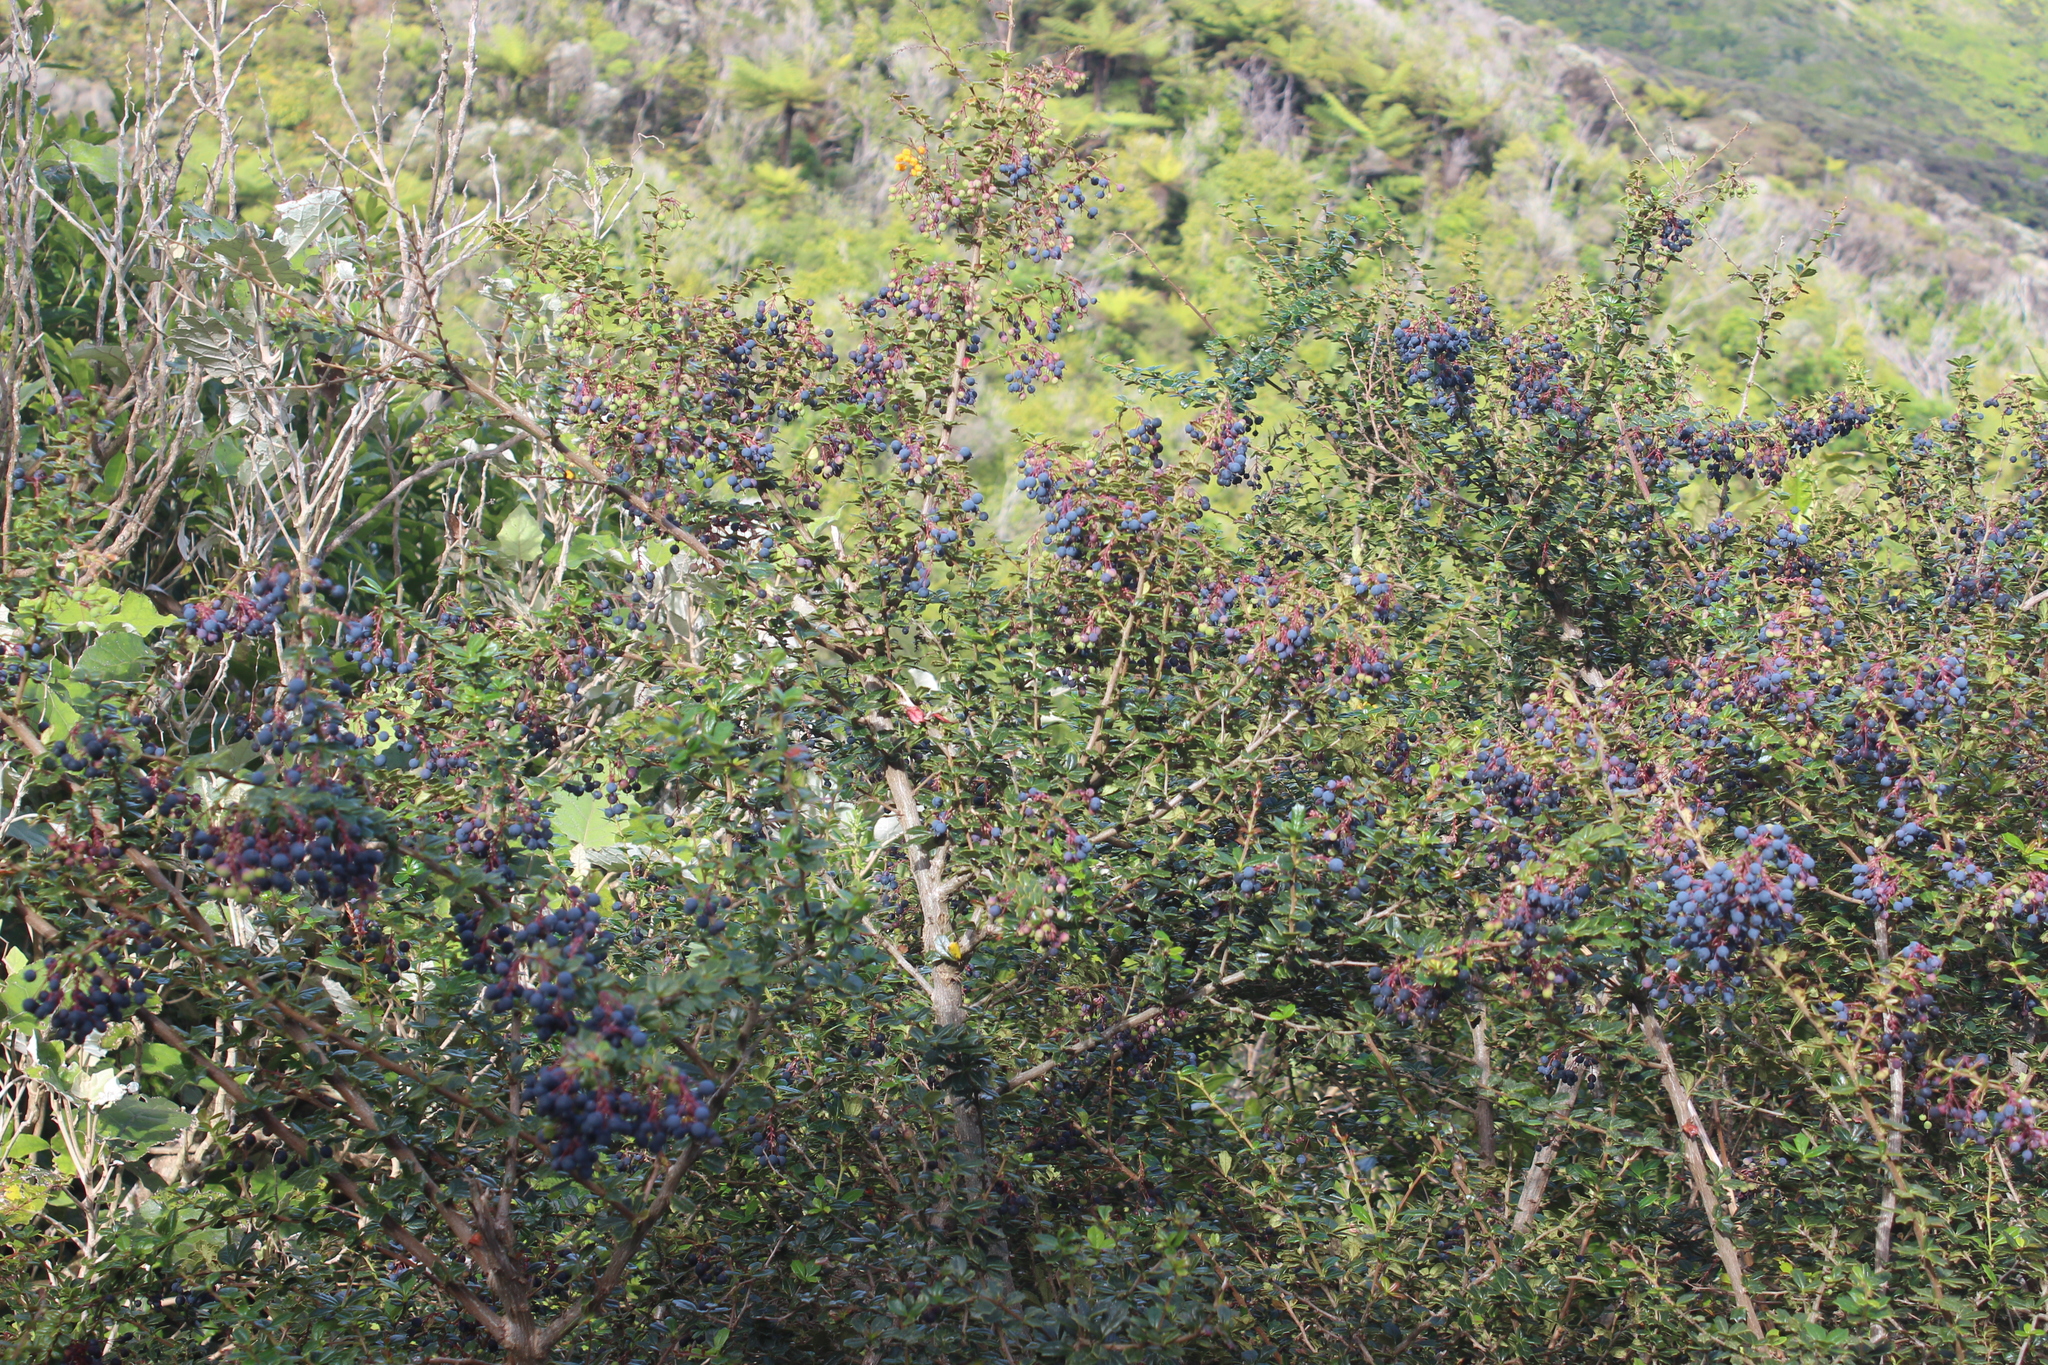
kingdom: Plantae
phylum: Tracheophyta
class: Magnoliopsida
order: Ranunculales
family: Berberidaceae
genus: Berberis
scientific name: Berberis darwinii
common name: Darwin's barberry
